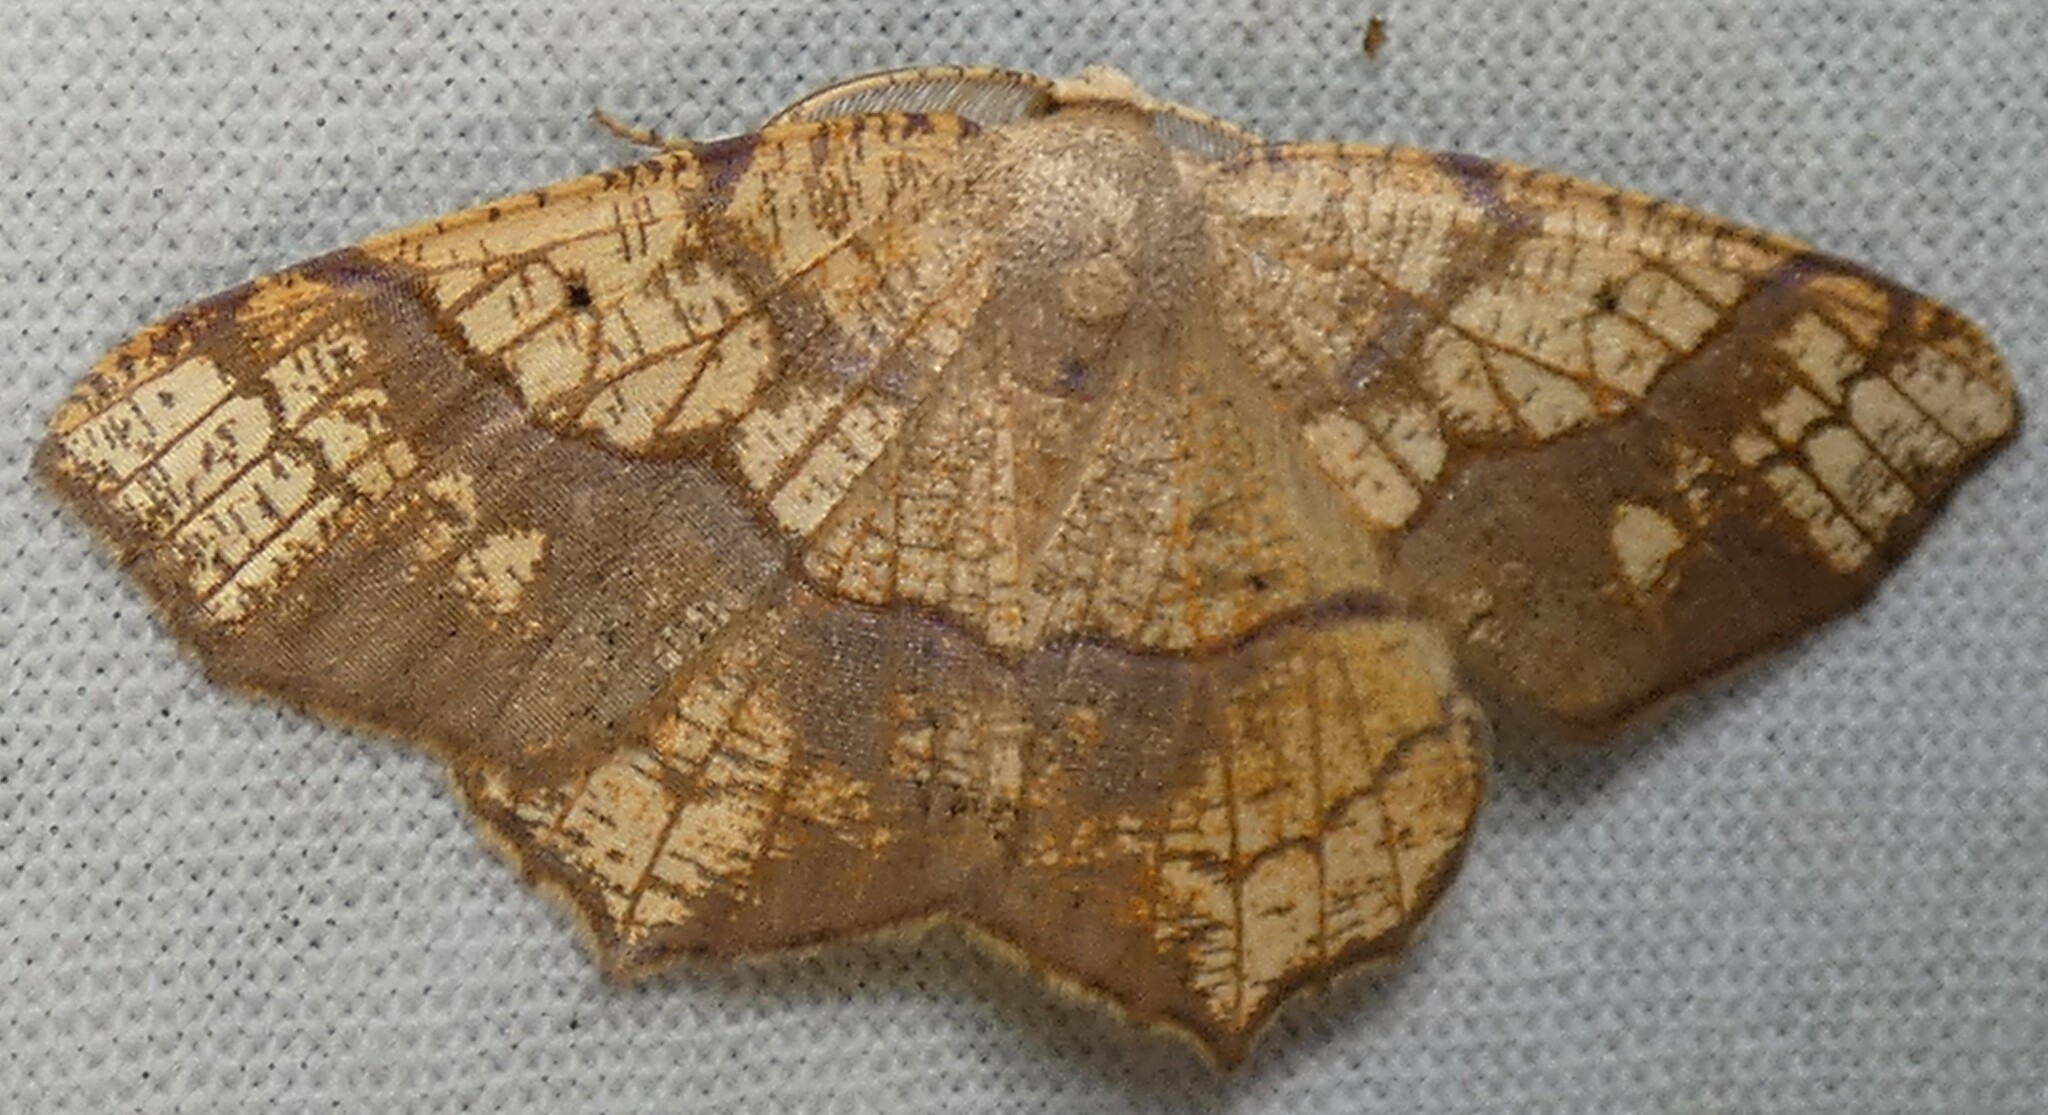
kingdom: Animalia
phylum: Arthropoda
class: Insecta
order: Lepidoptera
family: Geometridae
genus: Besma
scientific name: Besma quercivoraria
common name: Oak besma
